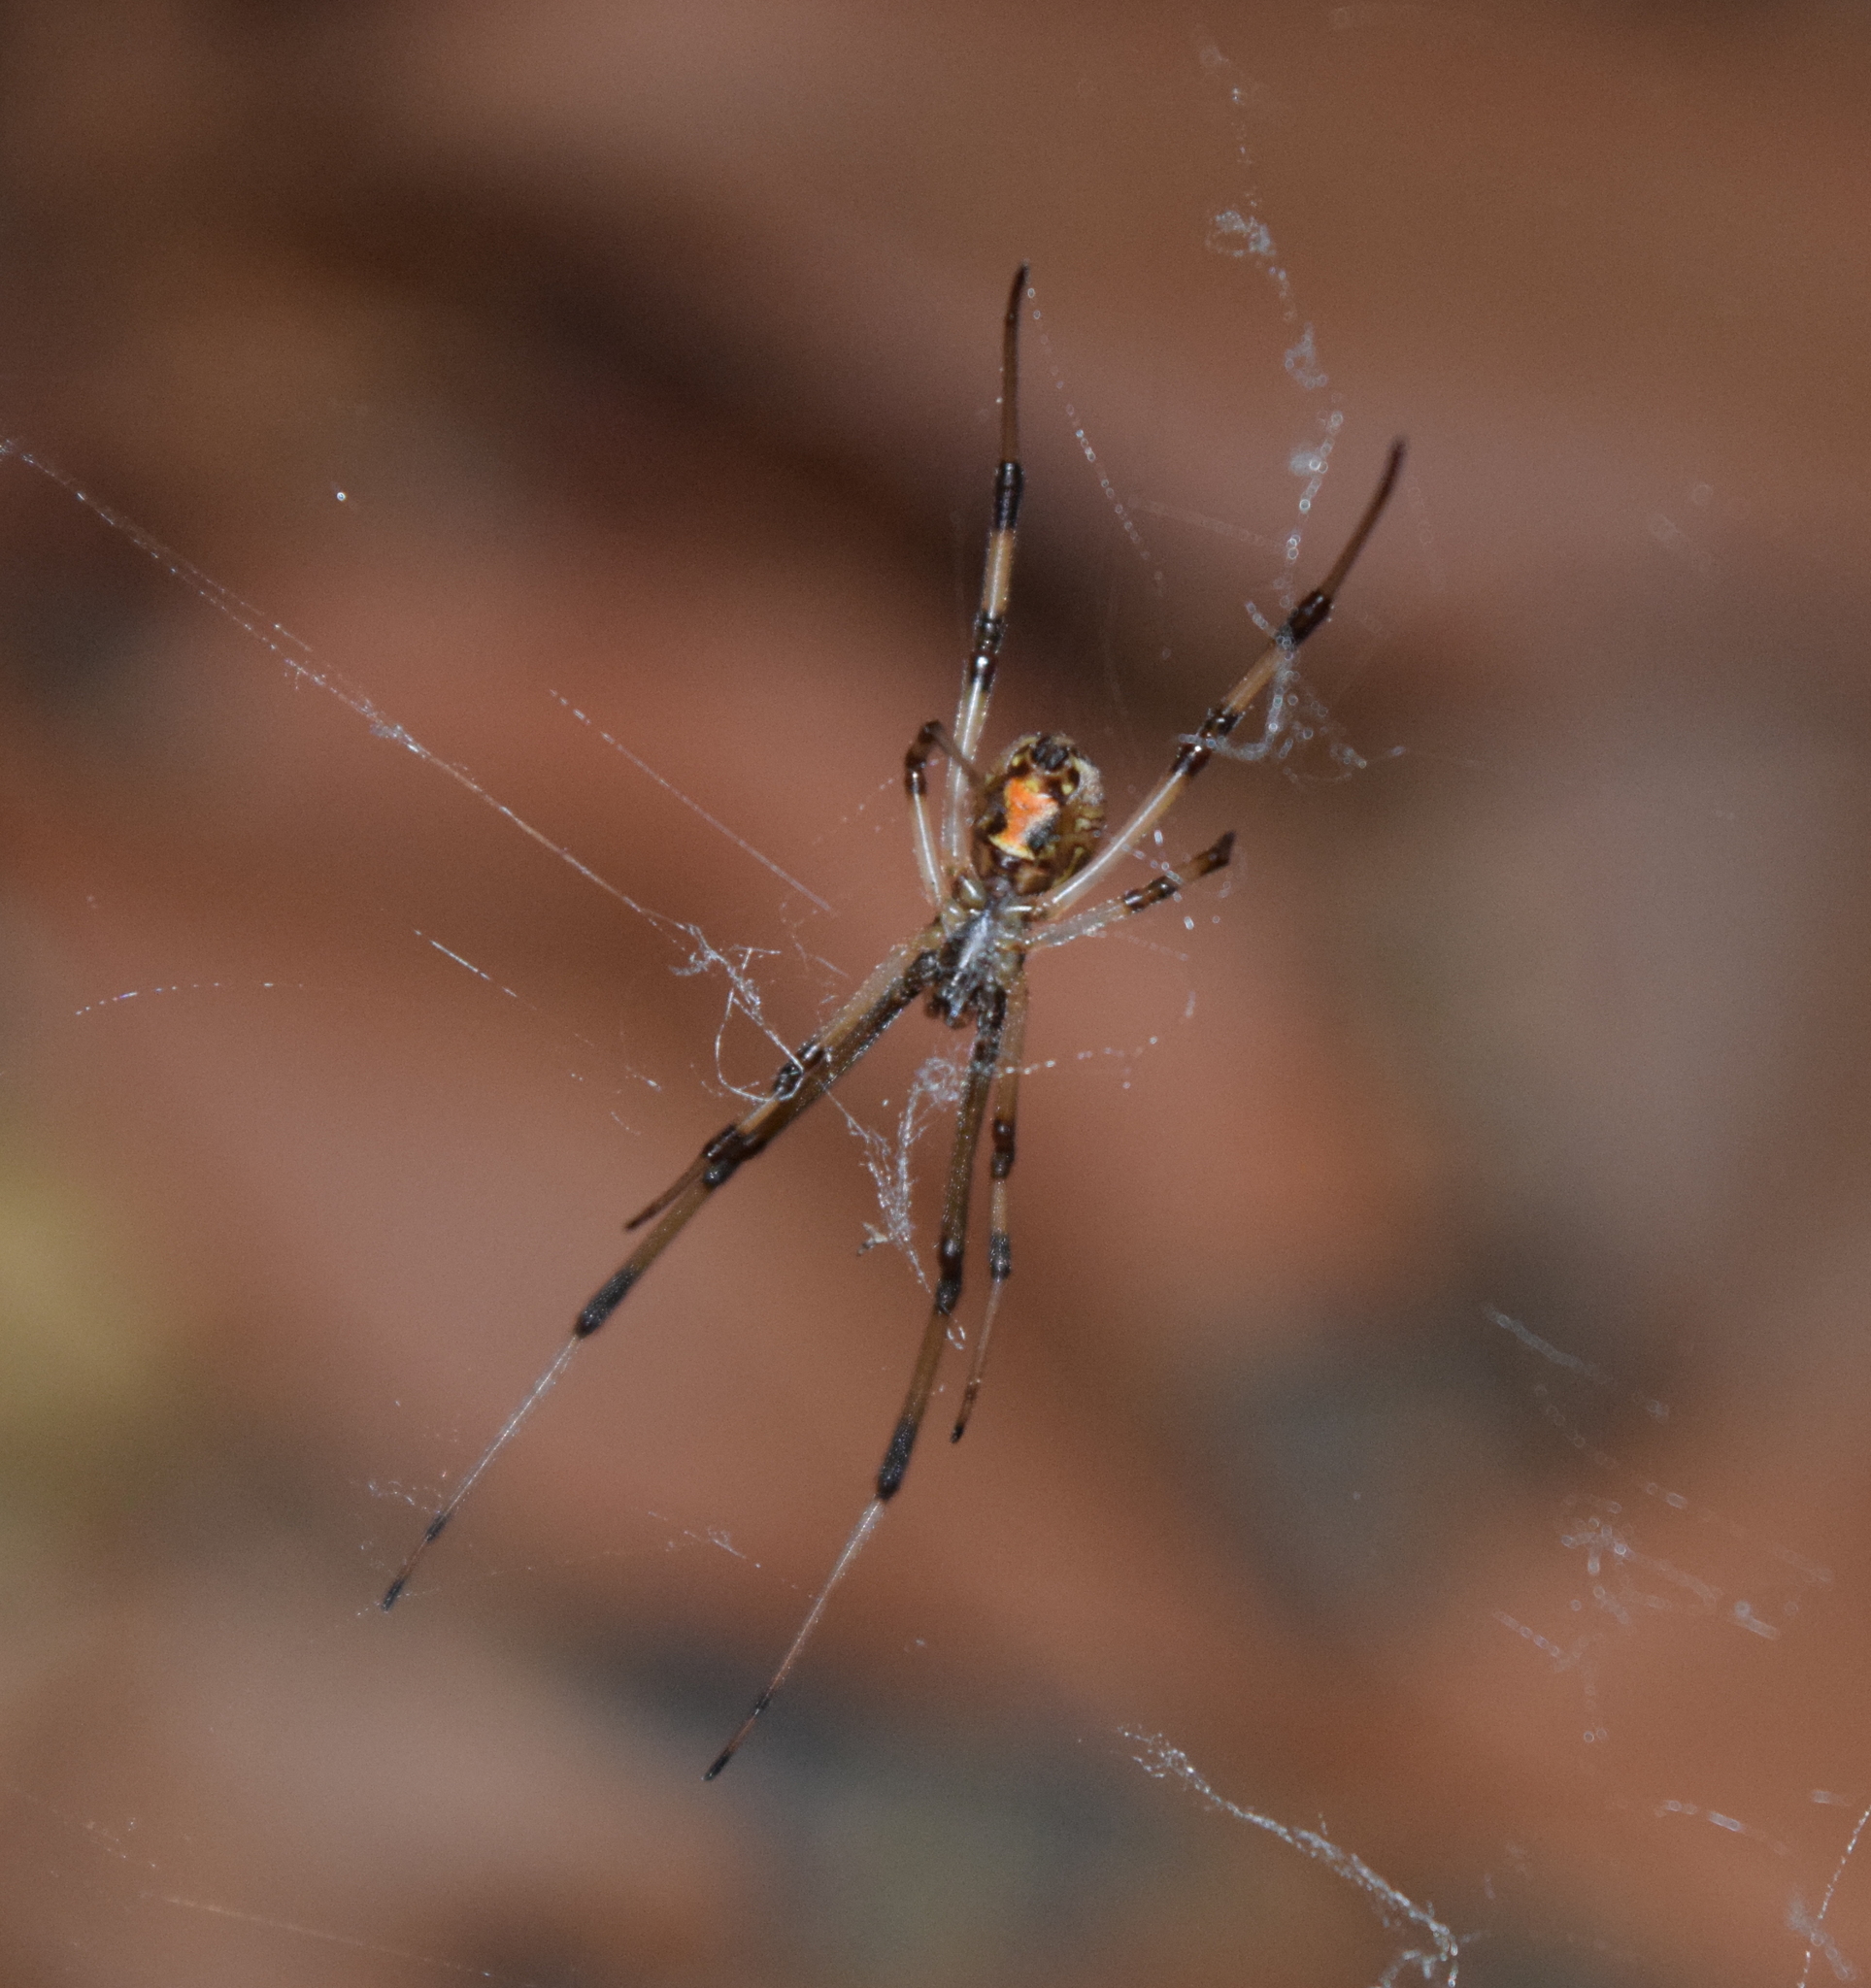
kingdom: Animalia
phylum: Arthropoda
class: Arachnida
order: Araneae
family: Theridiidae
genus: Latrodectus
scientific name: Latrodectus geometricus
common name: Brown widow spider
